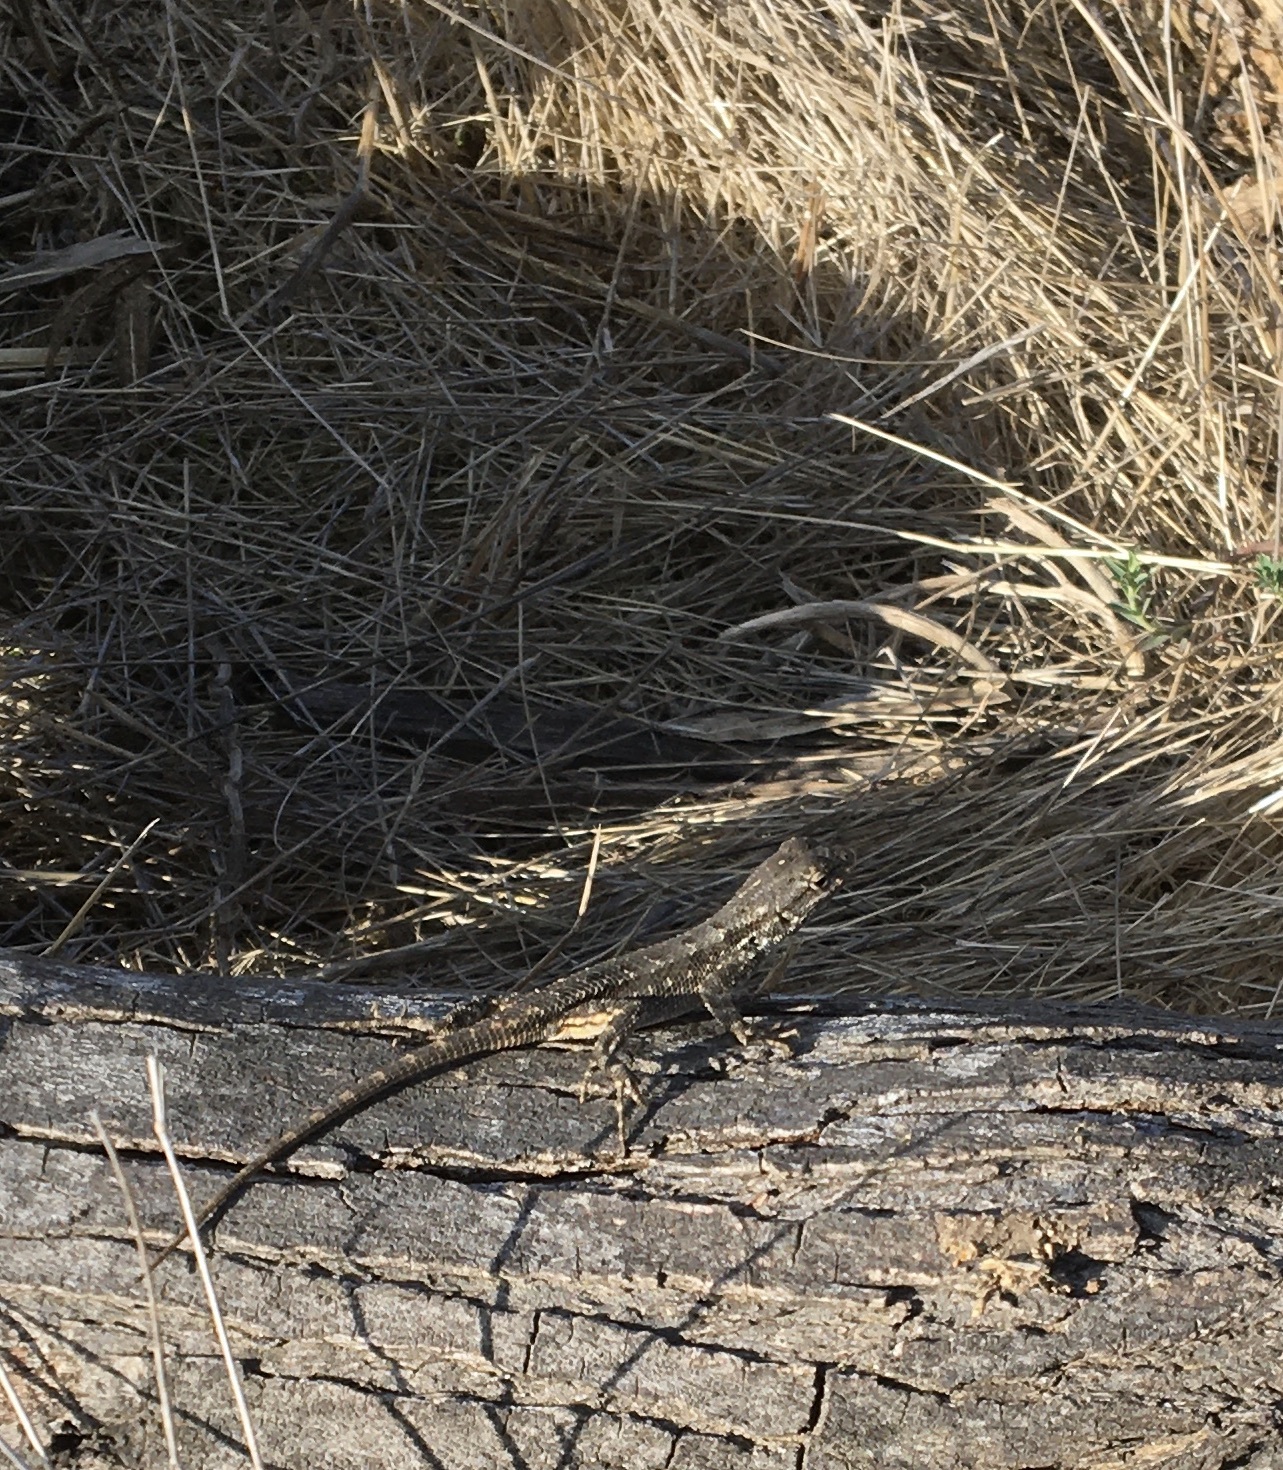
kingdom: Animalia
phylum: Chordata
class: Squamata
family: Phrynosomatidae
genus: Sceloporus
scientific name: Sceloporus occidentalis
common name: Western fence lizard
